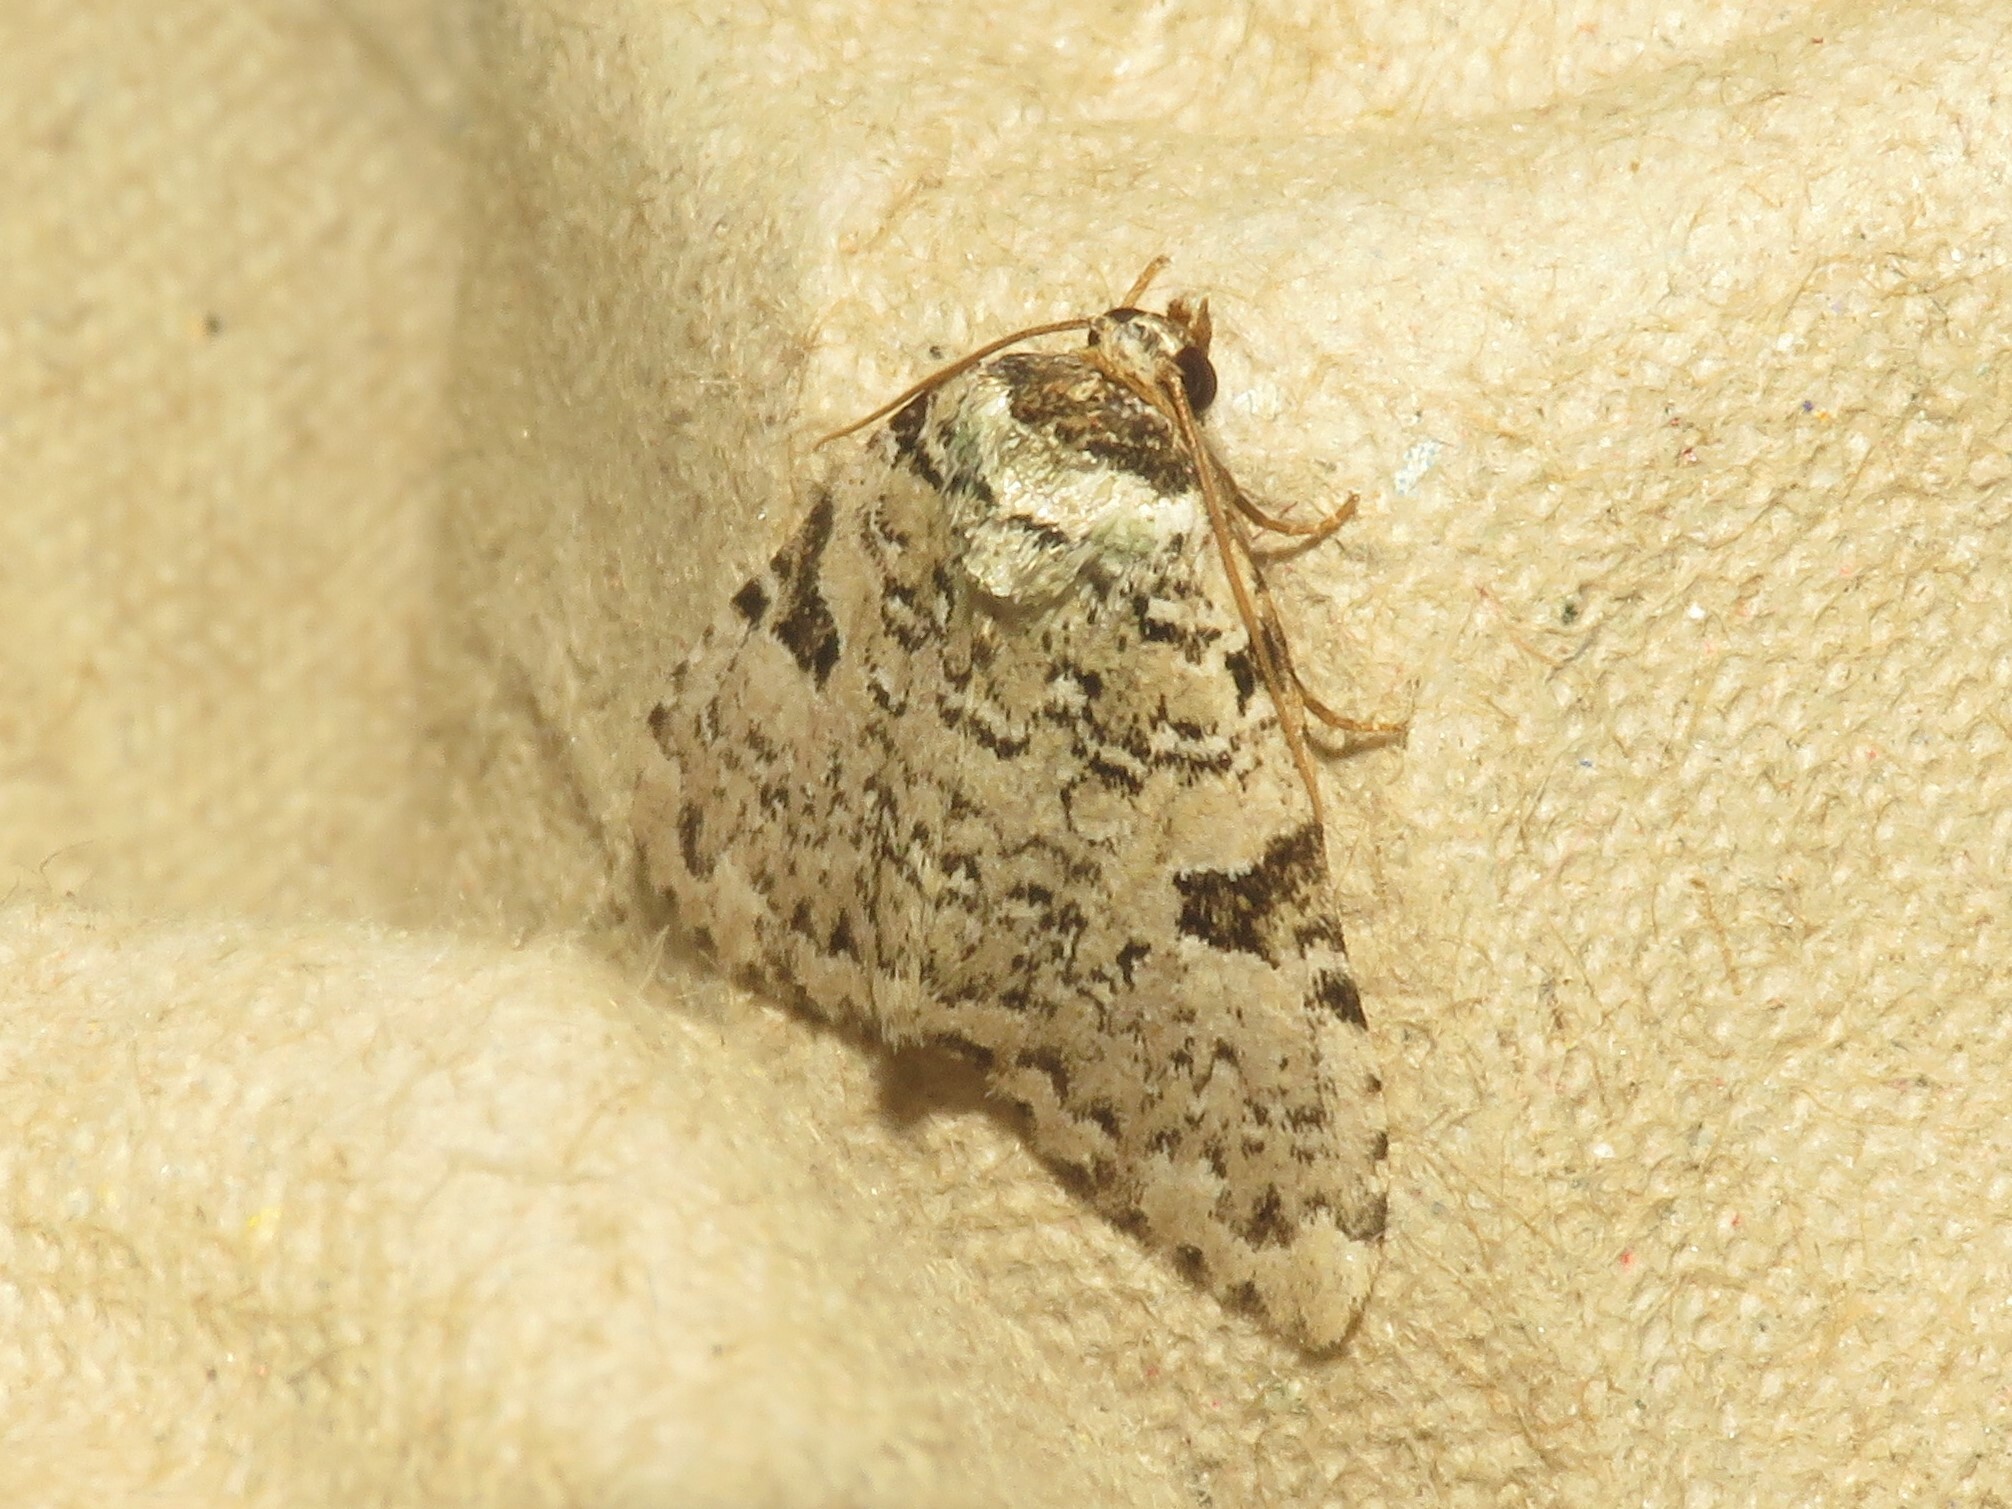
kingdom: Animalia
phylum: Arthropoda
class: Insecta
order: Lepidoptera
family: Noctuidae
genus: Leuconycta
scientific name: Leuconycta diphteroides
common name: Green leuconycta moth
